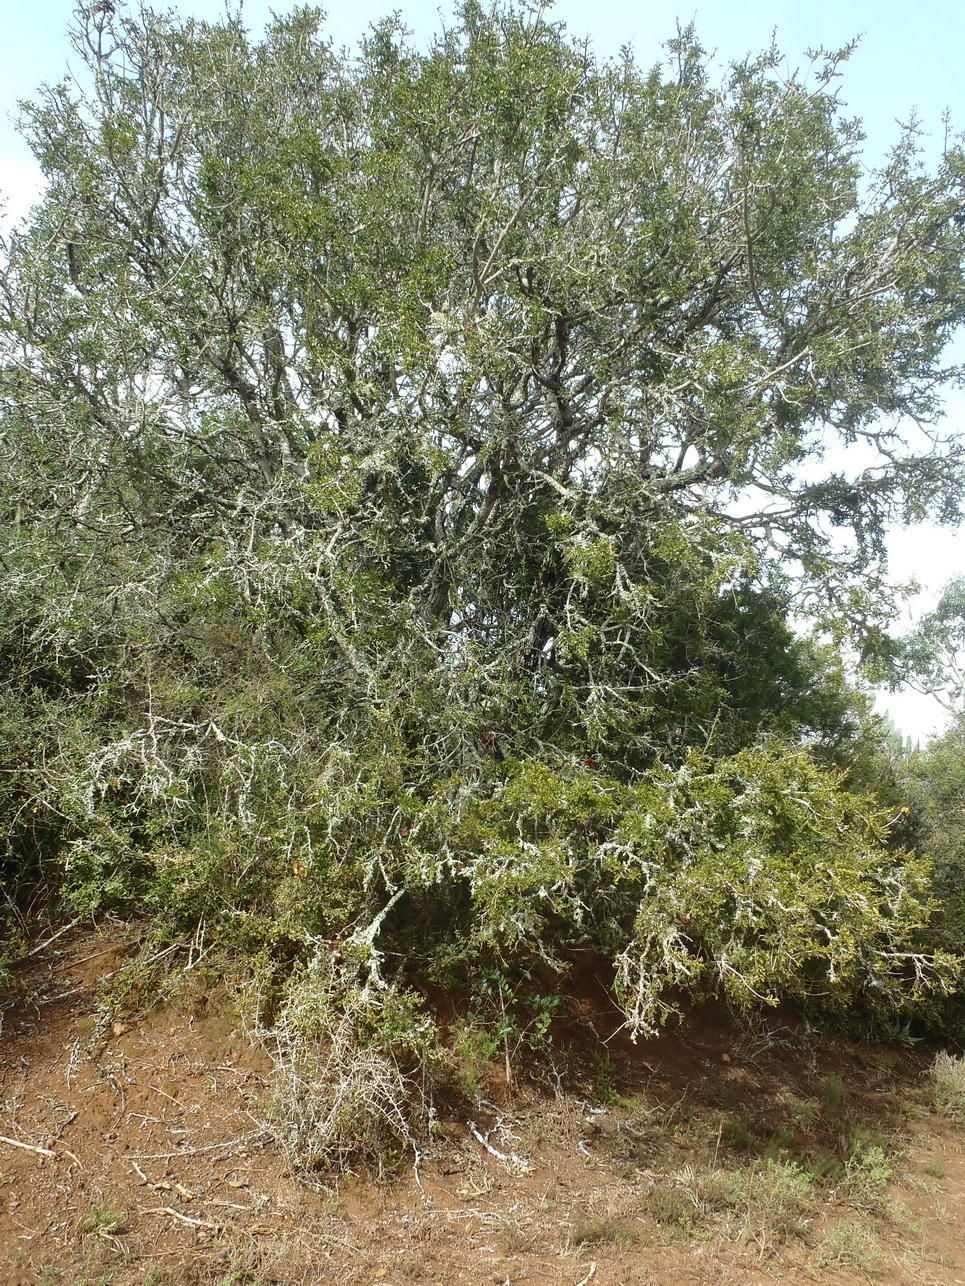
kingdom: Plantae
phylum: Tracheophyta
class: Magnoliopsida
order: Fabales
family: Fabaceae
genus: Schotia
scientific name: Schotia afra
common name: Hottentot's bean
